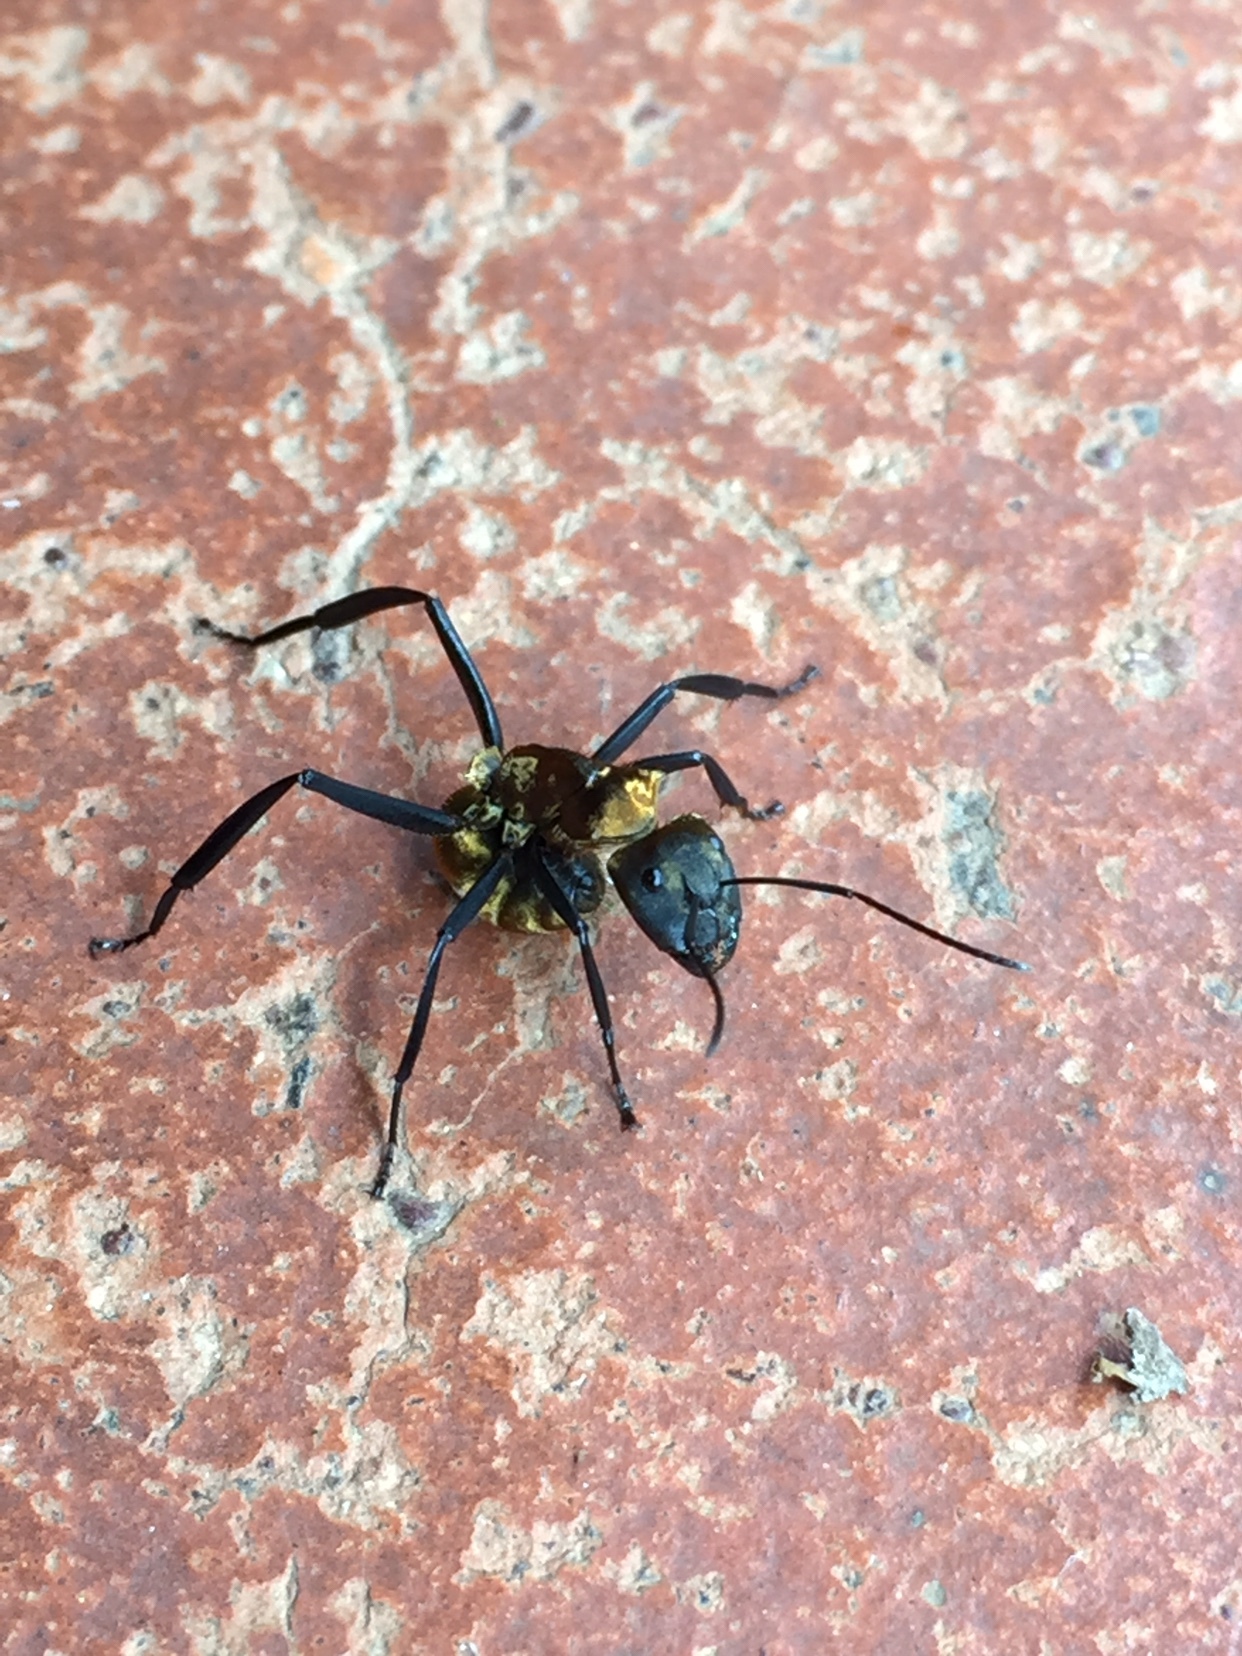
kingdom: Animalia
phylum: Arthropoda
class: Insecta
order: Hymenoptera
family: Formicidae
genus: Camponotus
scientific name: Camponotus sericeiventris
